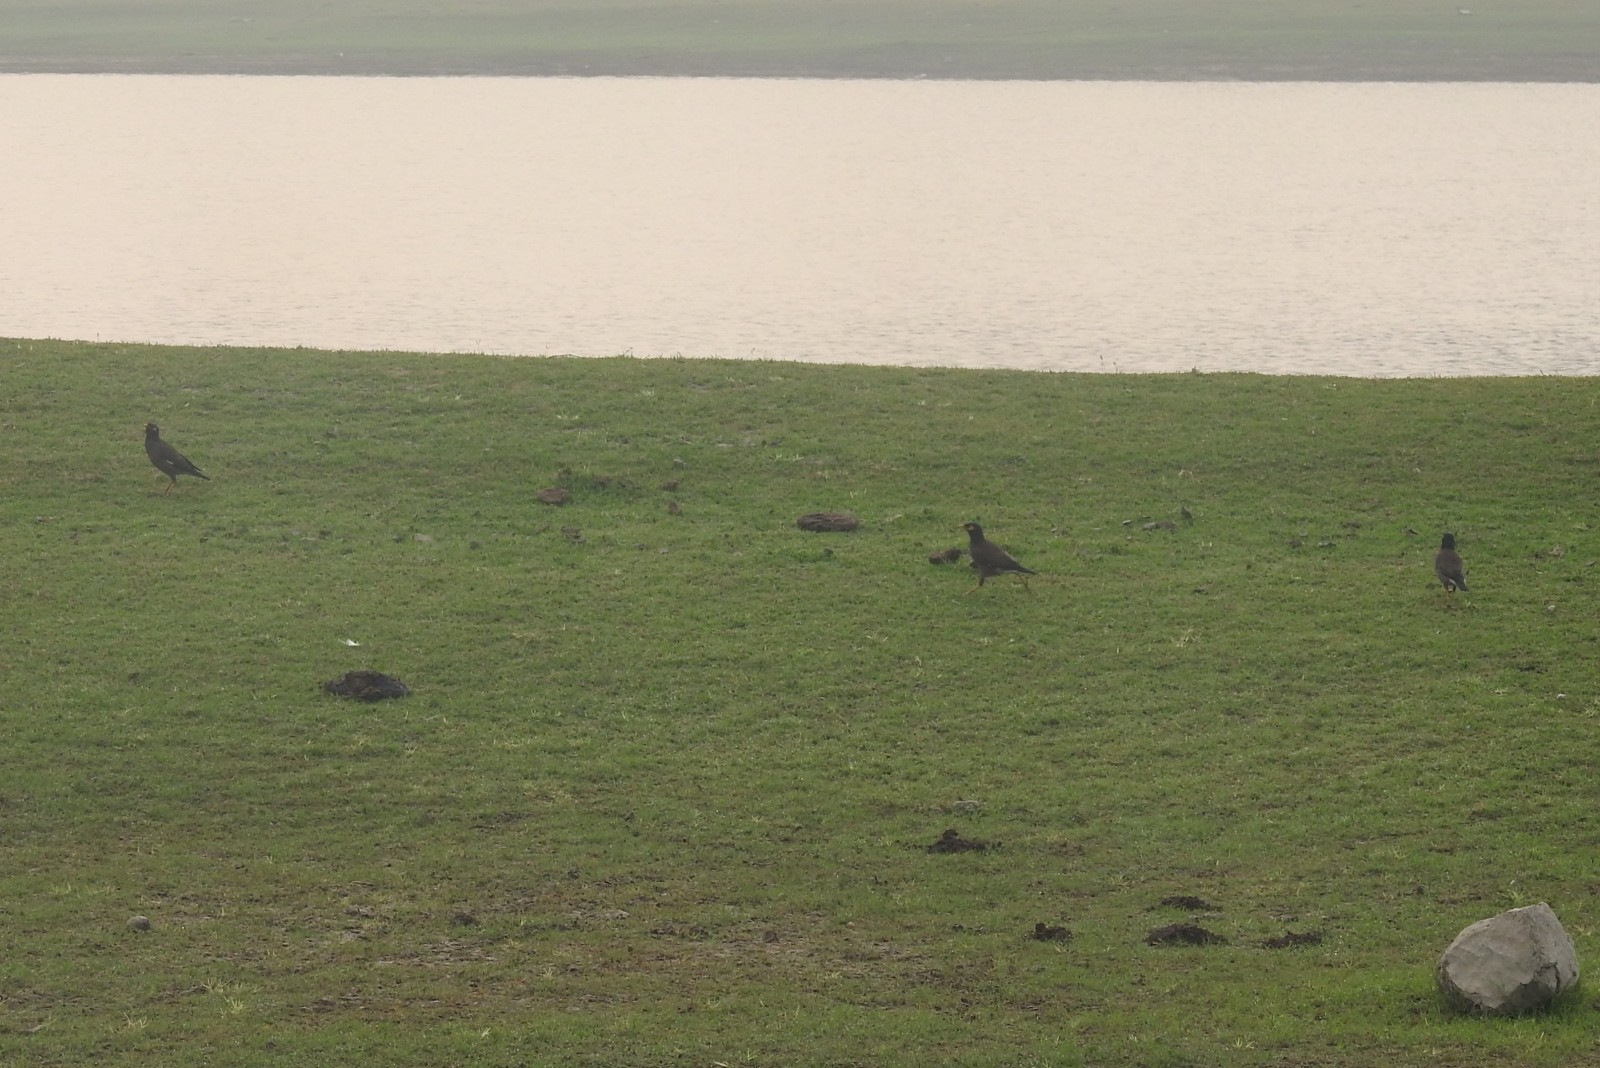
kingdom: Animalia
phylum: Chordata
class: Aves
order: Passeriformes
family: Sturnidae
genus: Acridotheres
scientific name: Acridotheres tristis
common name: Common myna
